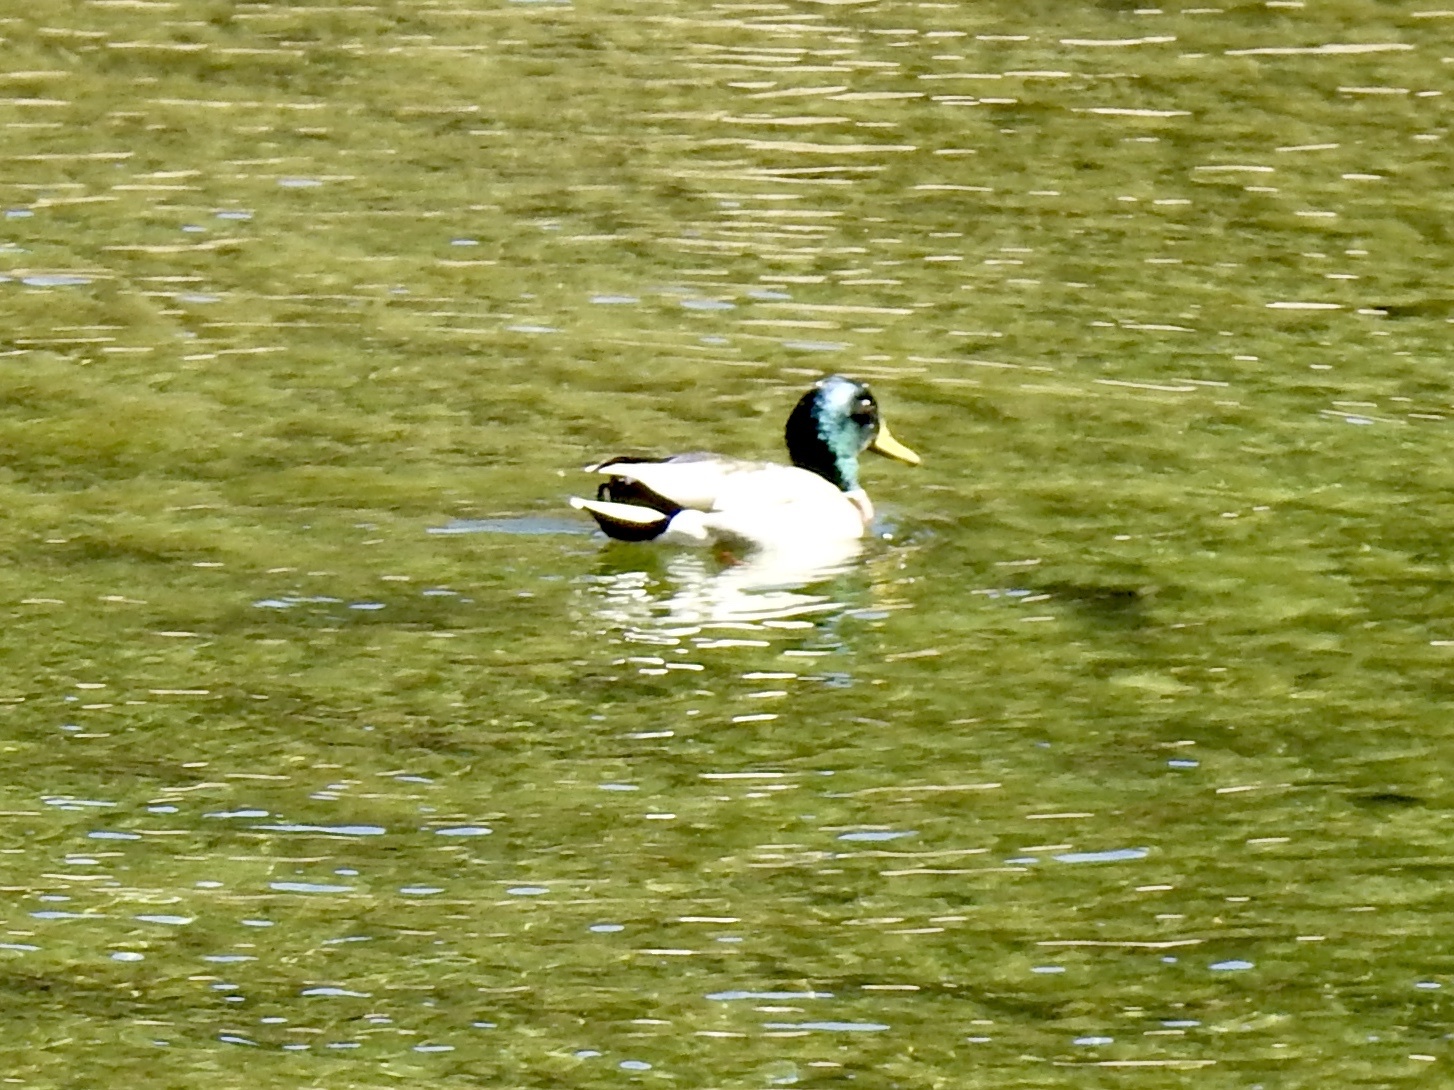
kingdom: Animalia
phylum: Chordata
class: Aves
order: Anseriformes
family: Anatidae
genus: Anas
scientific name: Anas platyrhynchos
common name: Mallard
